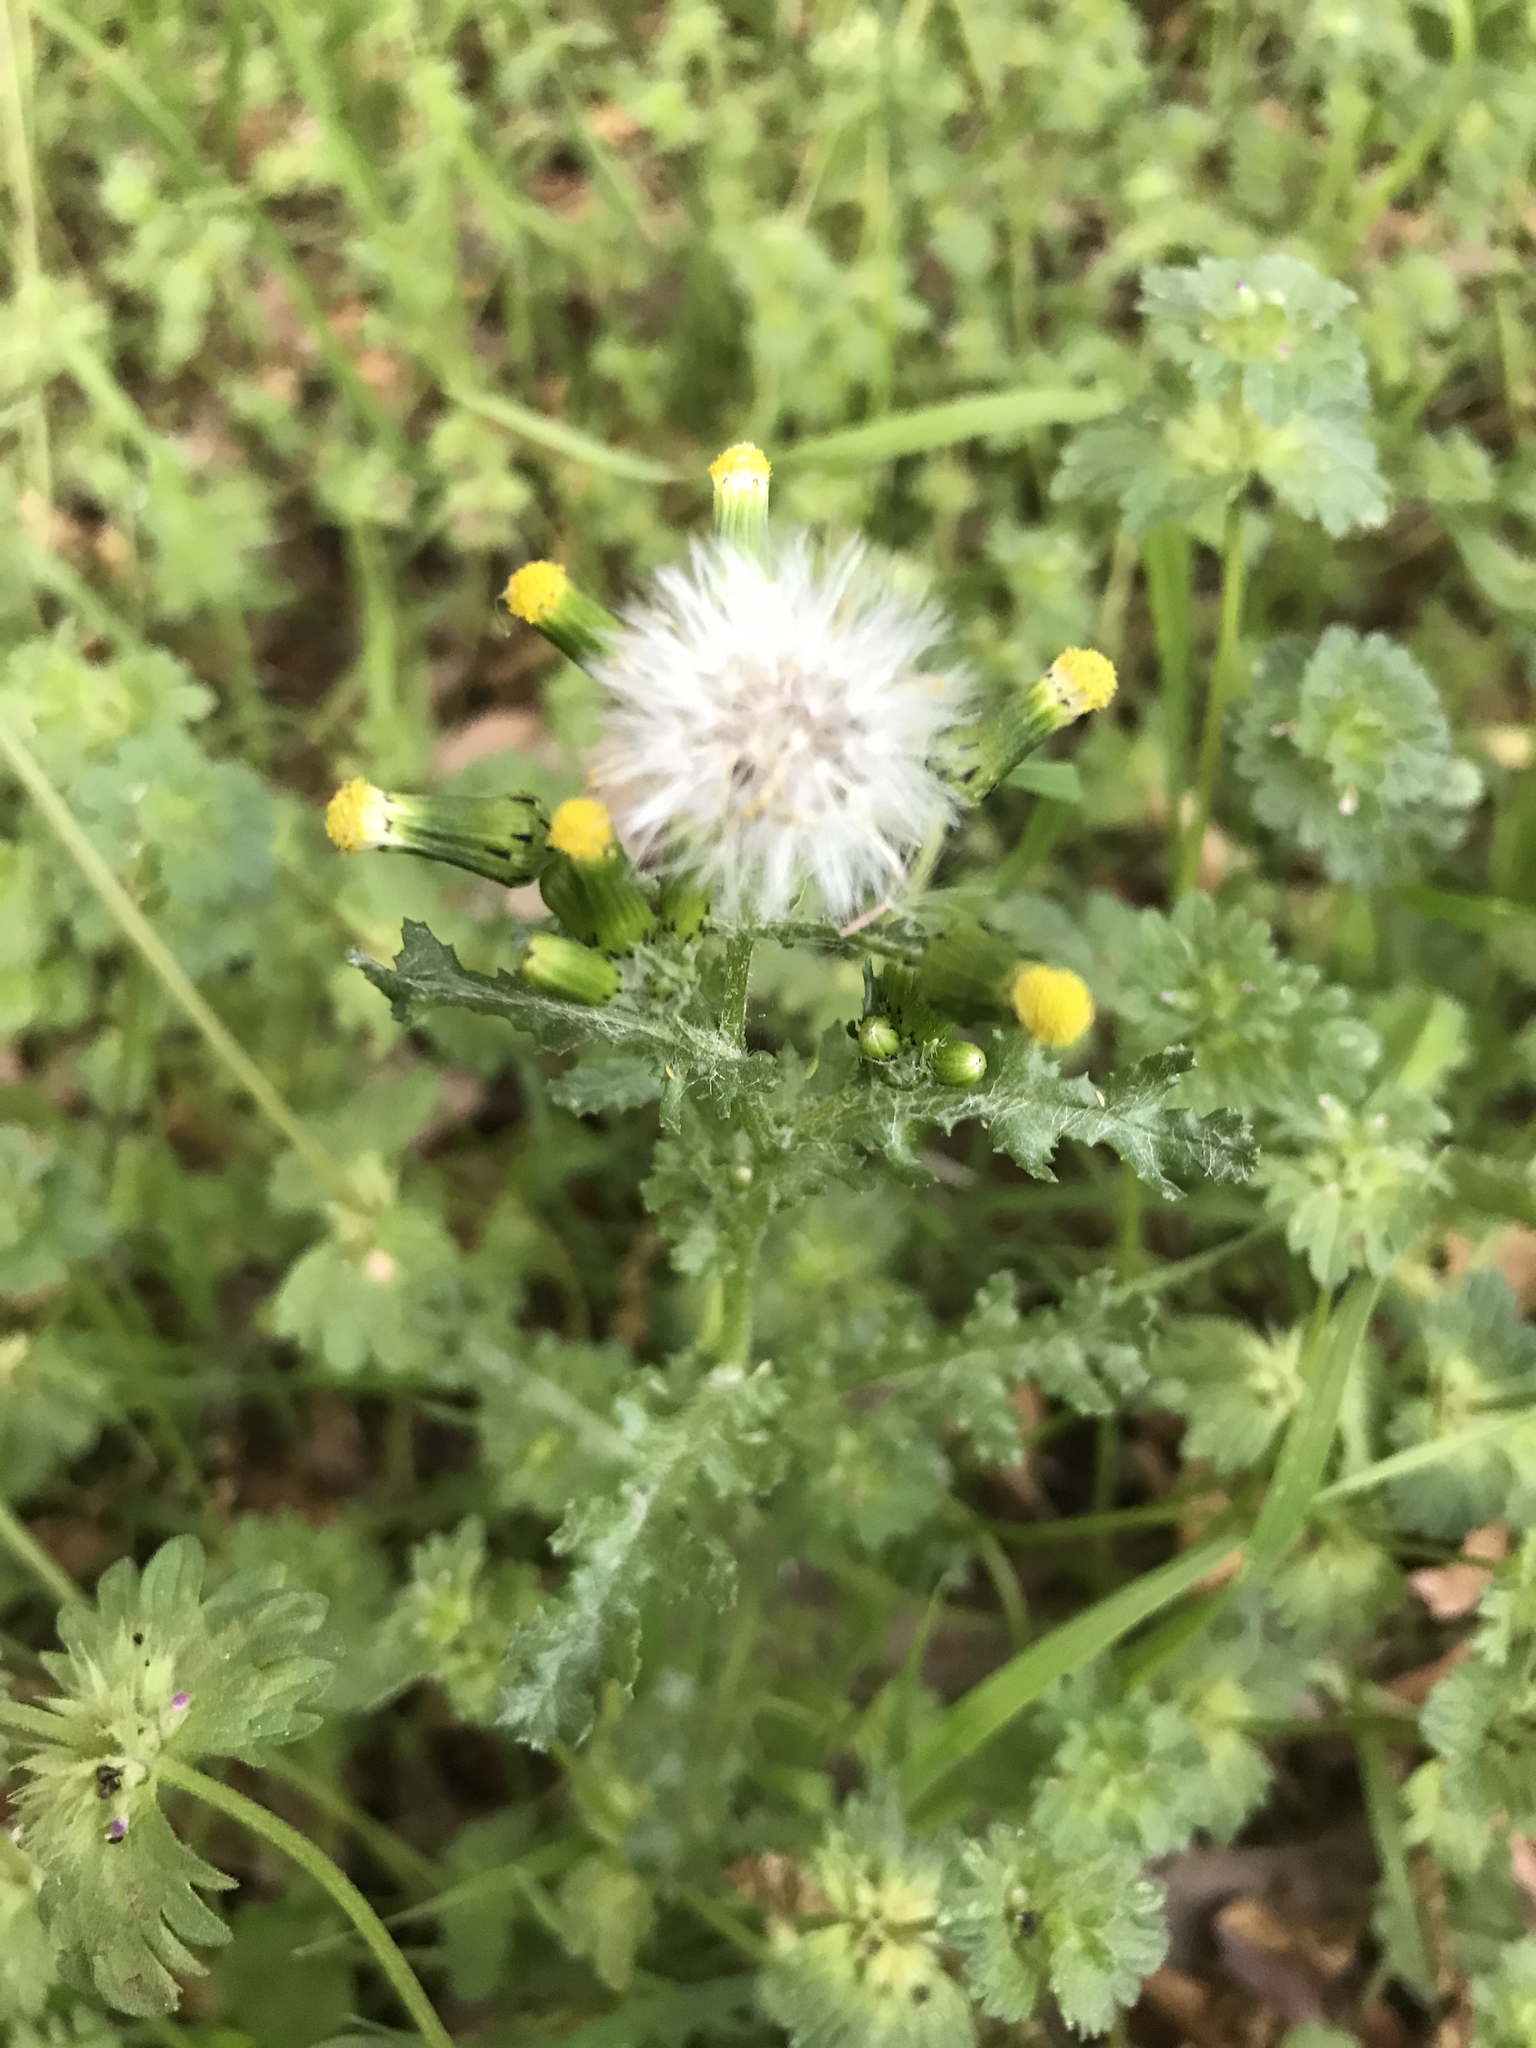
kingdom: Plantae
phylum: Tracheophyta
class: Magnoliopsida
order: Asterales
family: Asteraceae
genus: Senecio
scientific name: Senecio vulgaris
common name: Old-man-in-the-spring
